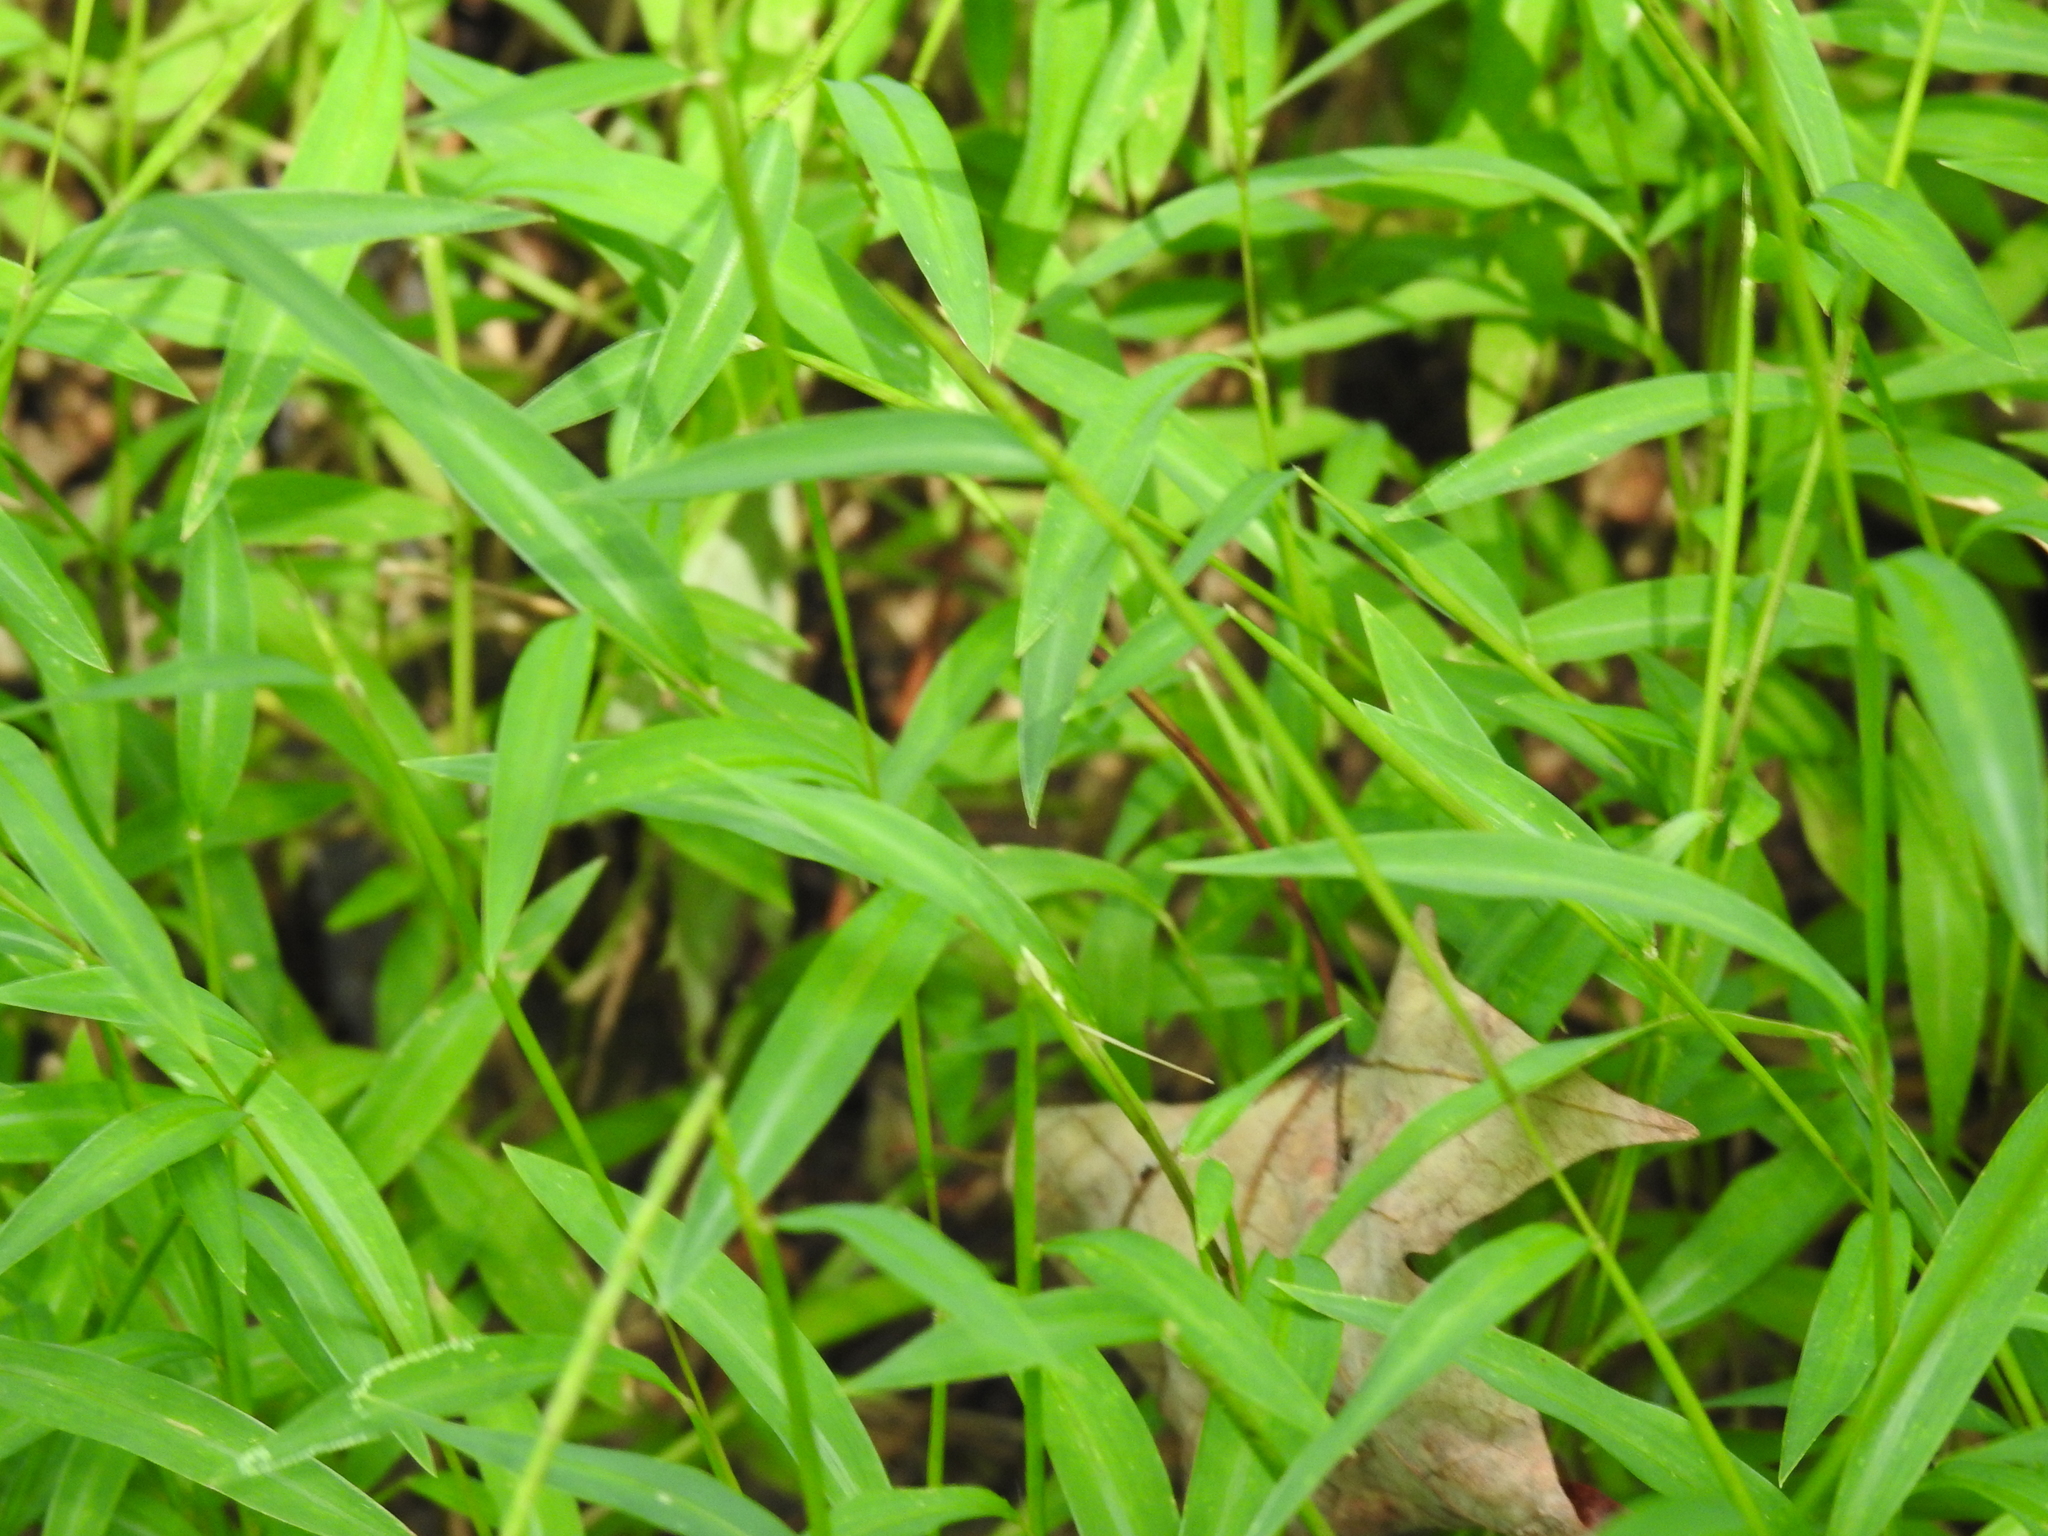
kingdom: Plantae
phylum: Tracheophyta
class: Liliopsida
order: Poales
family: Poaceae
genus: Microstegium
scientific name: Microstegium vimineum
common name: Japanese stiltgrass
